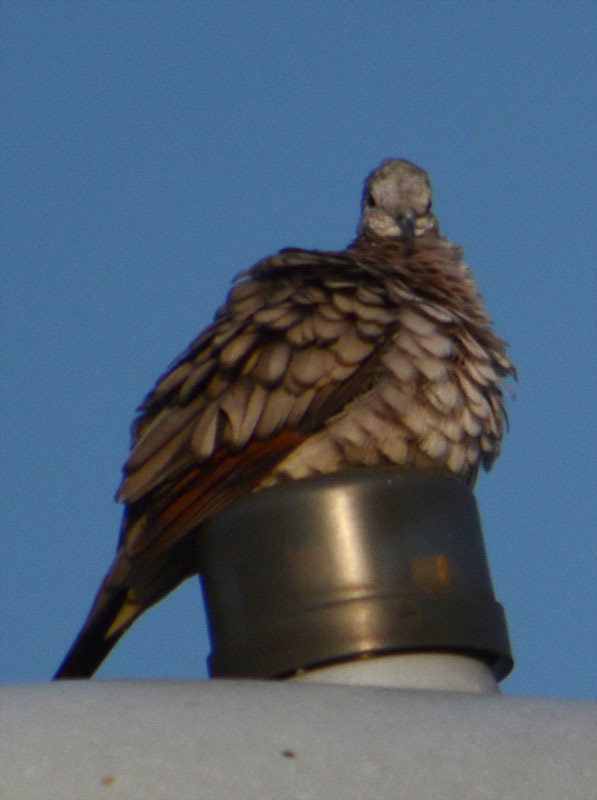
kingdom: Animalia
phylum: Chordata
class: Aves
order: Columbiformes
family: Columbidae
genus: Columbina
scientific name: Columbina inca
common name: Inca dove
